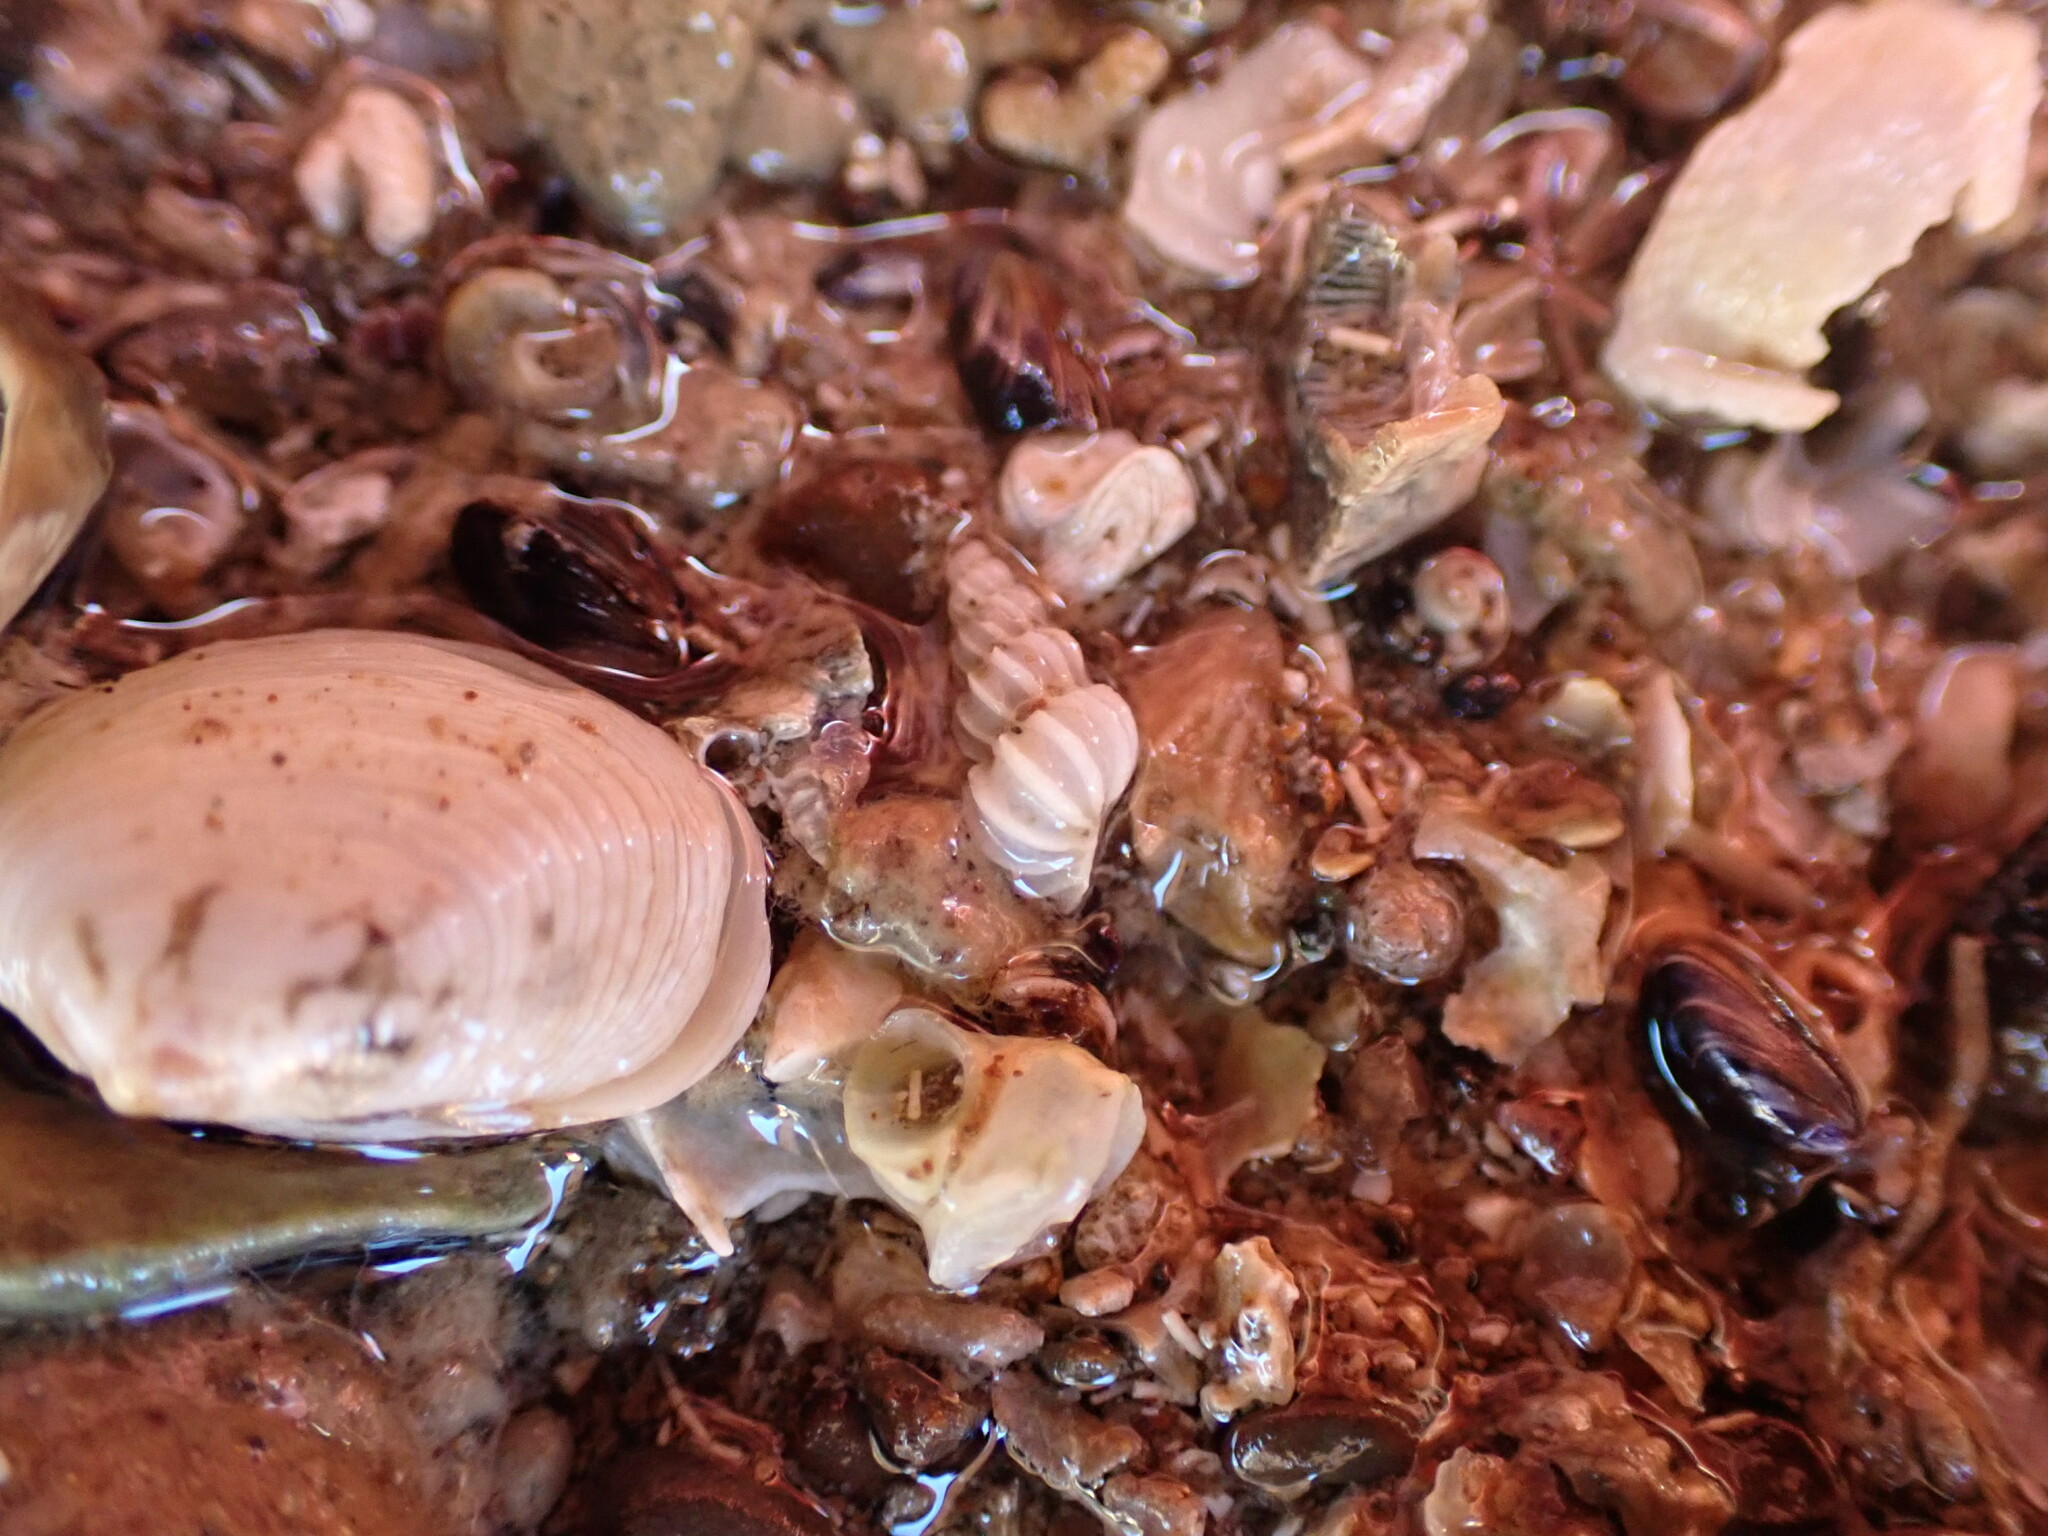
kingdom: Animalia
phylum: Mollusca
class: Gastropoda
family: Epitoniidae
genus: Epitonium
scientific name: Epitonium minorum
